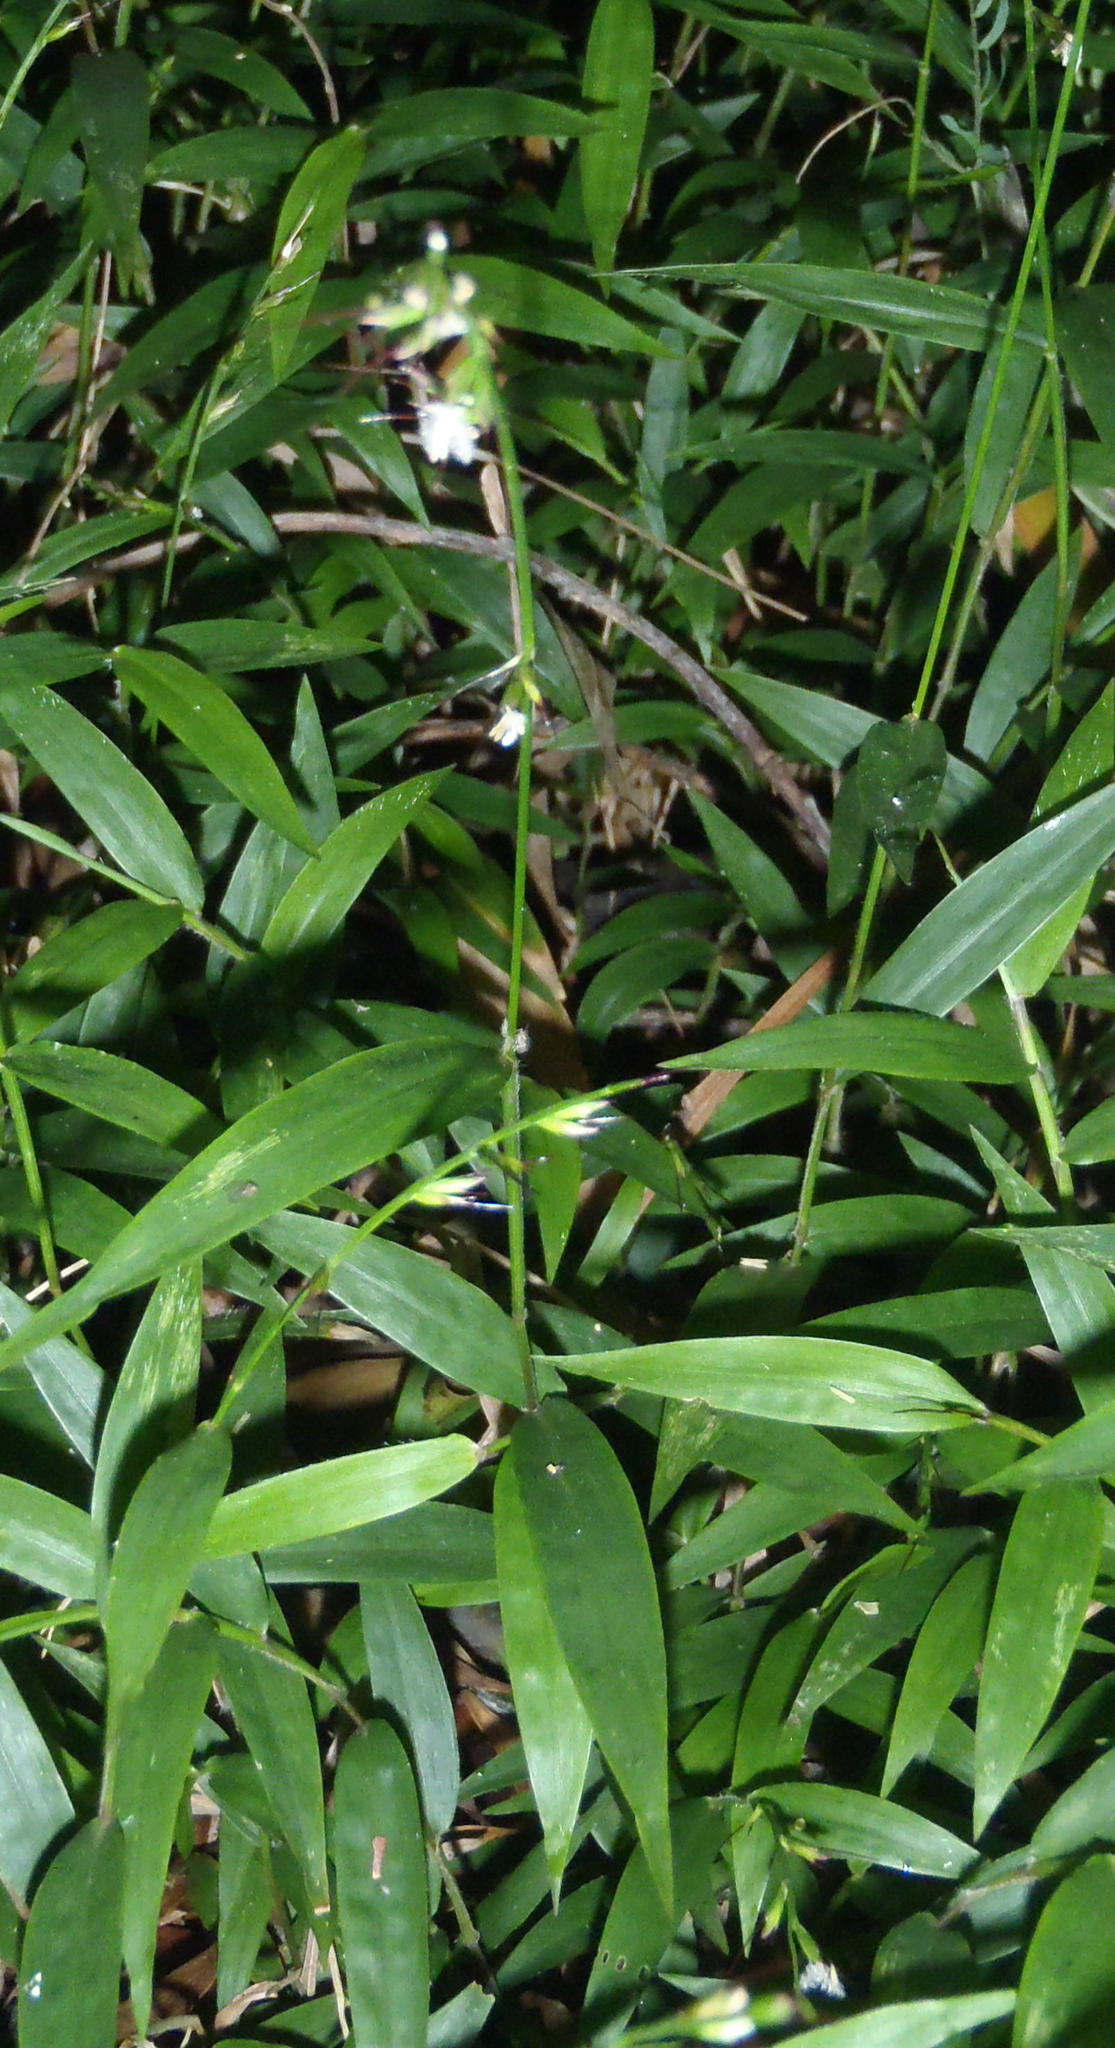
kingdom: Plantae
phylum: Tracheophyta
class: Liliopsida
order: Poales
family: Poaceae
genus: Oplismenus
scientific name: Oplismenus hirtellus
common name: Basketgrass
